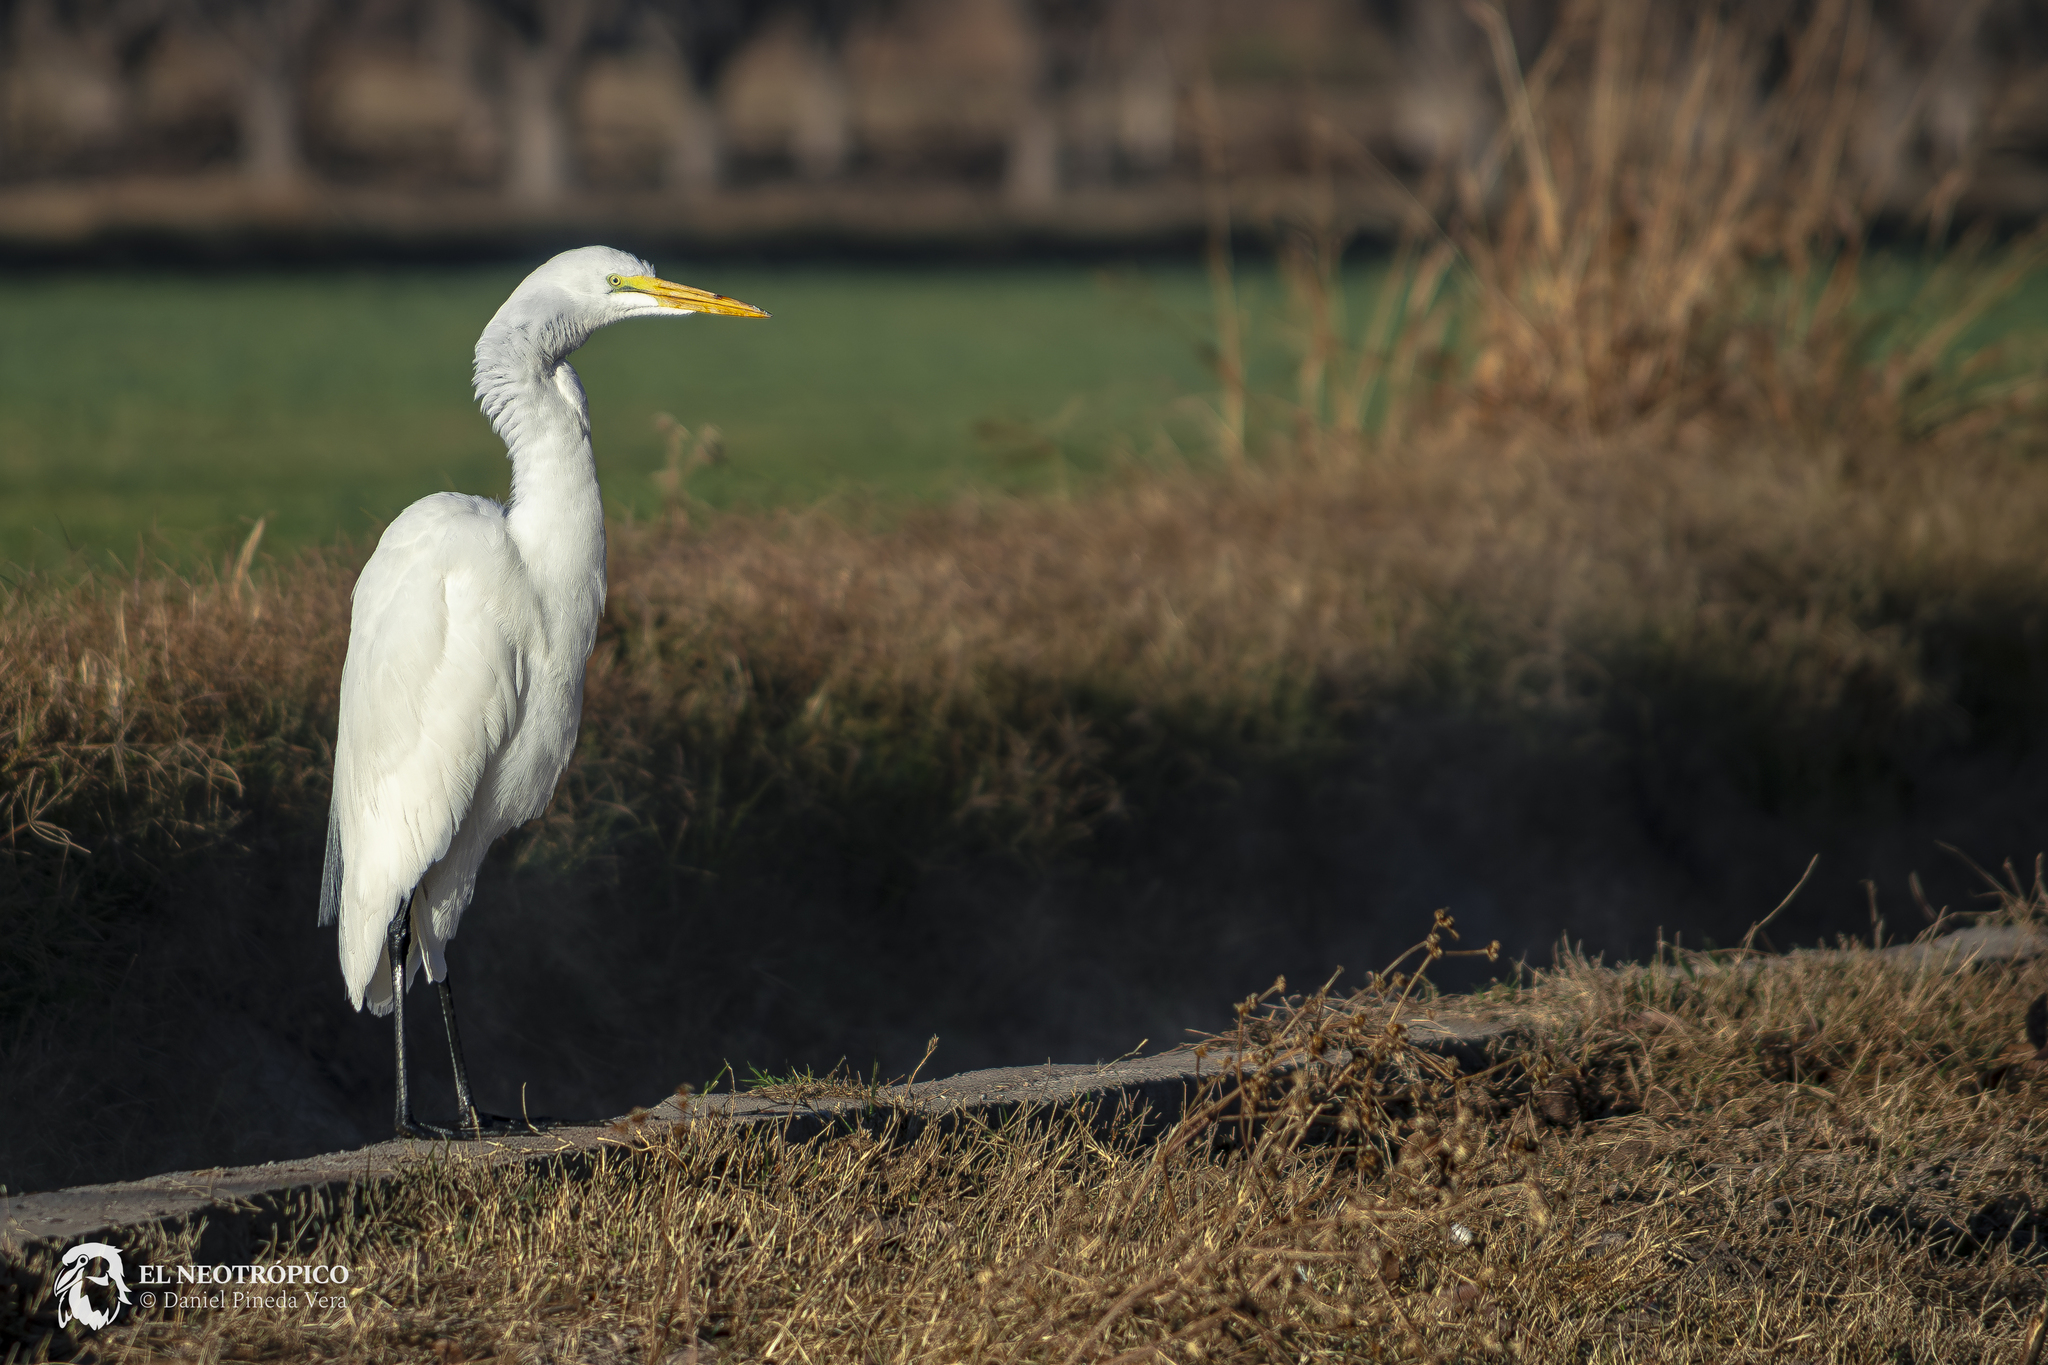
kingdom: Animalia
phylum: Chordata
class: Aves
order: Pelecaniformes
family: Ardeidae
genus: Ardea
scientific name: Ardea alba
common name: Great egret
